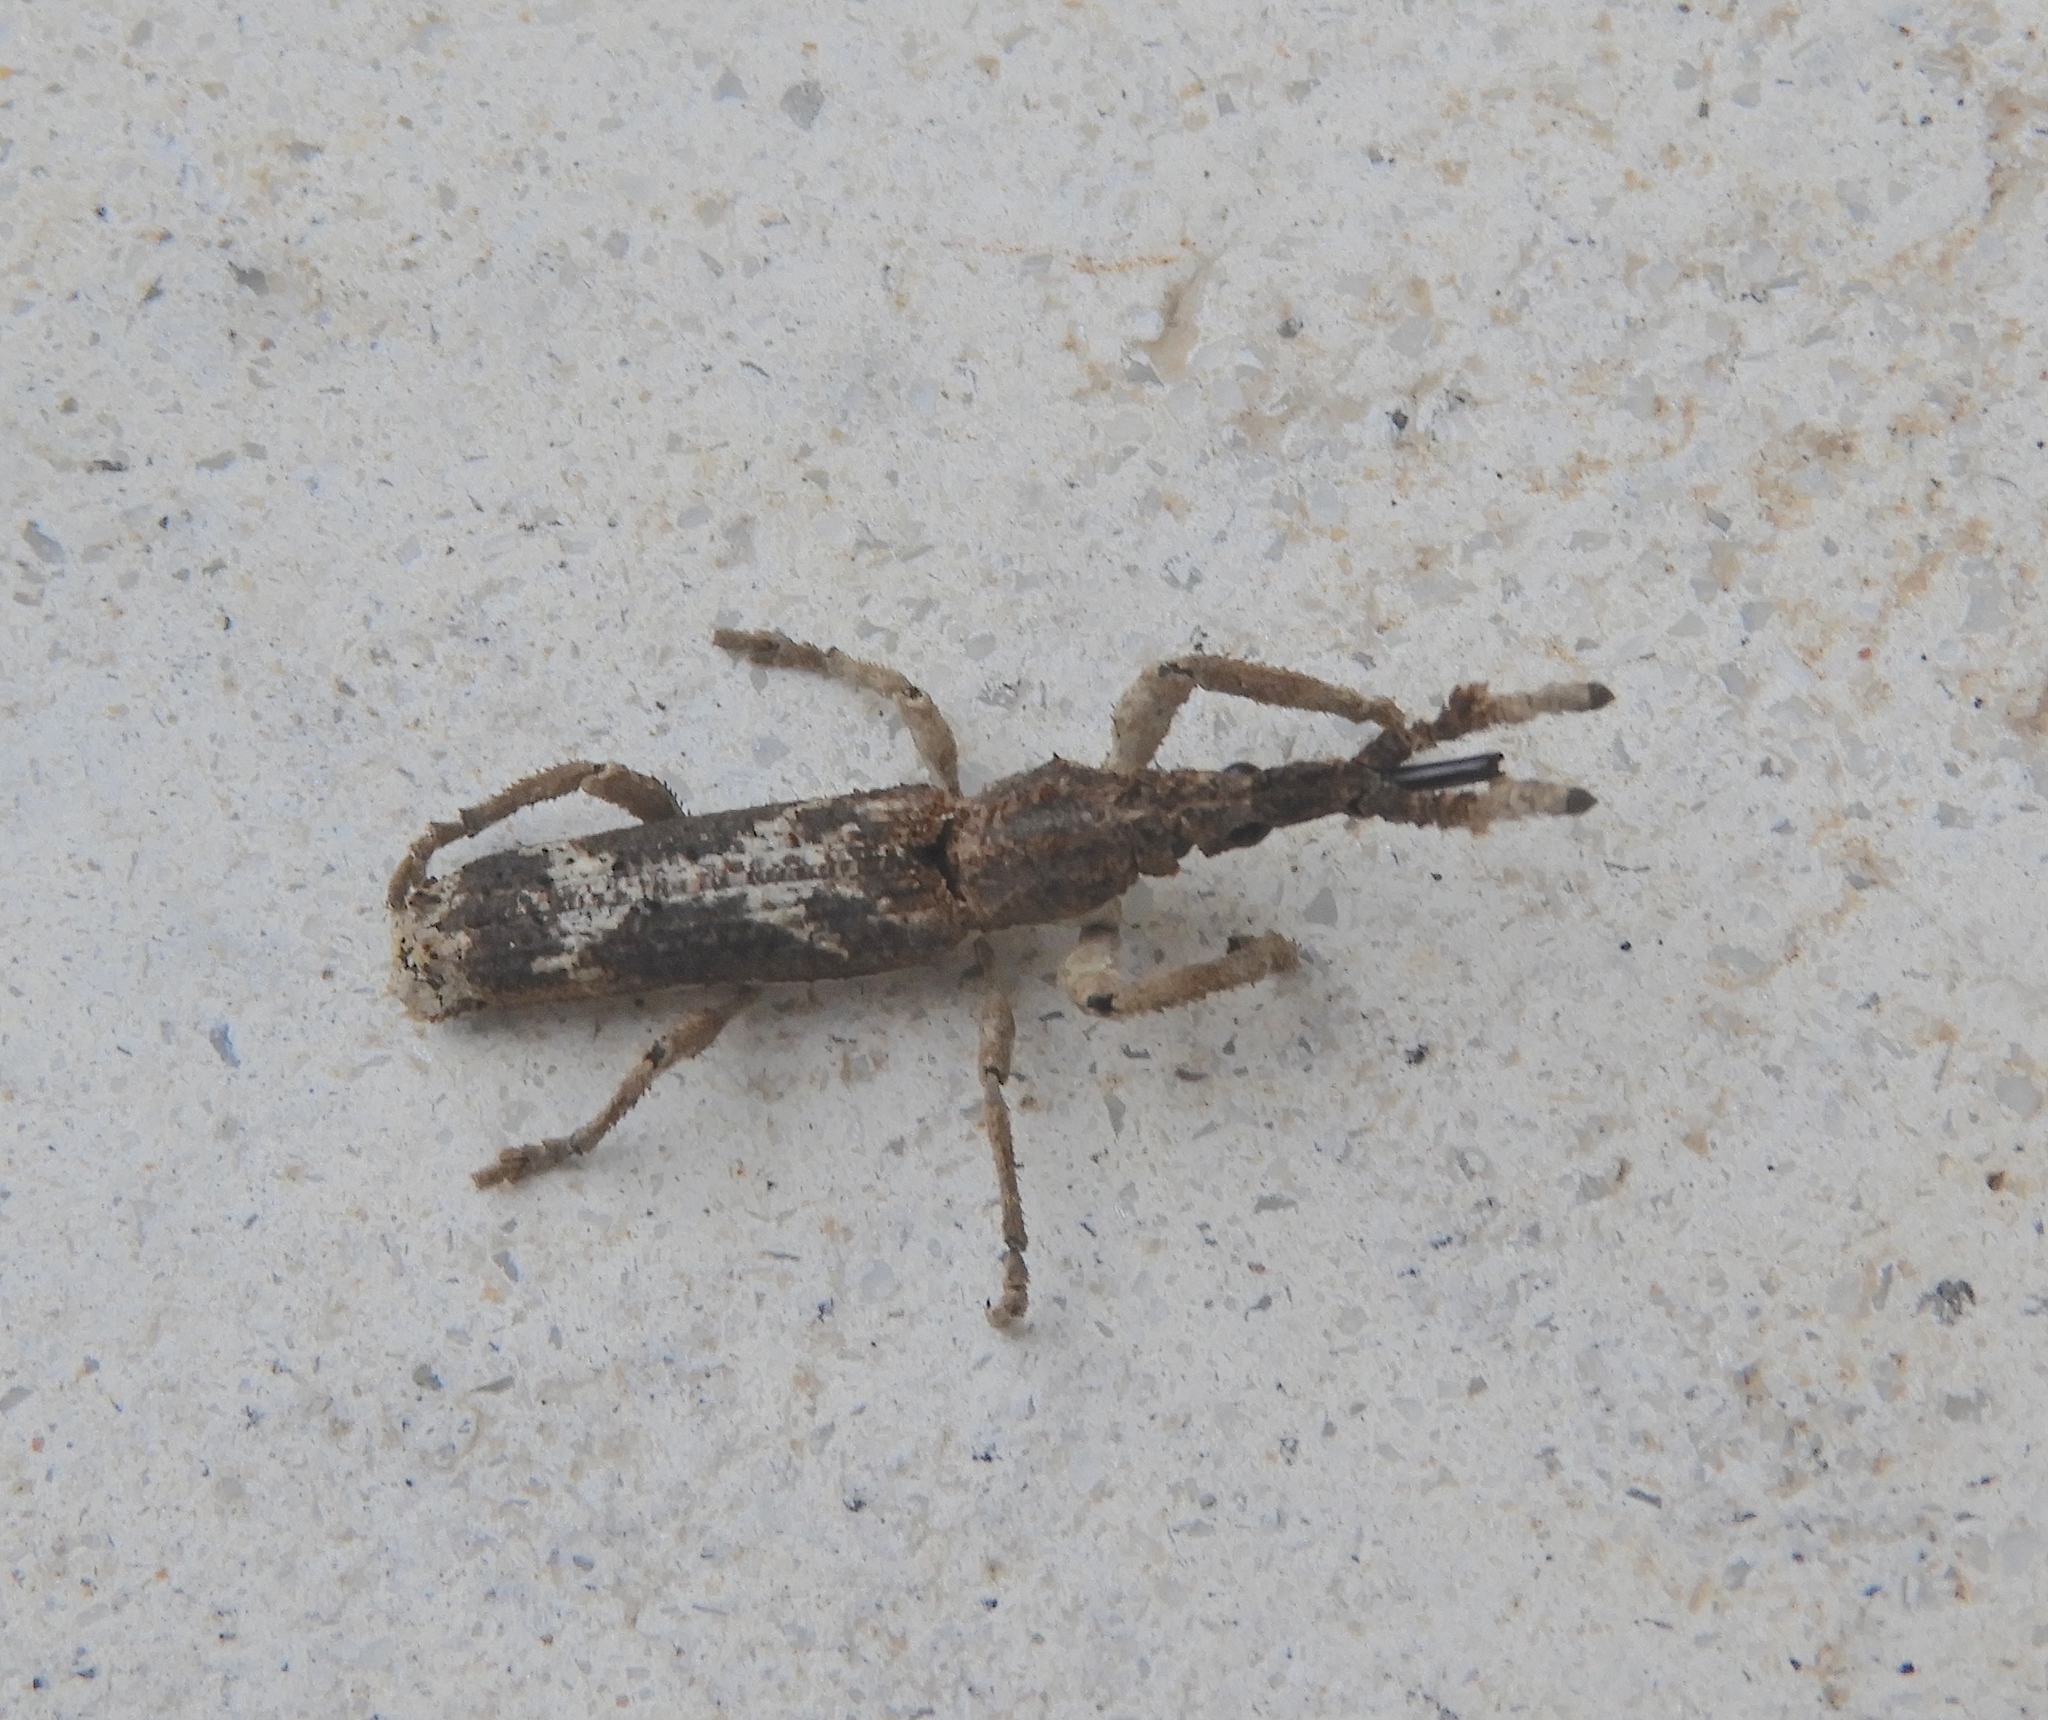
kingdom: Animalia
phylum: Arthropoda
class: Insecta
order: Coleoptera
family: Brentidae
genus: Ulocerus
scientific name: Ulocerus mexicanus
